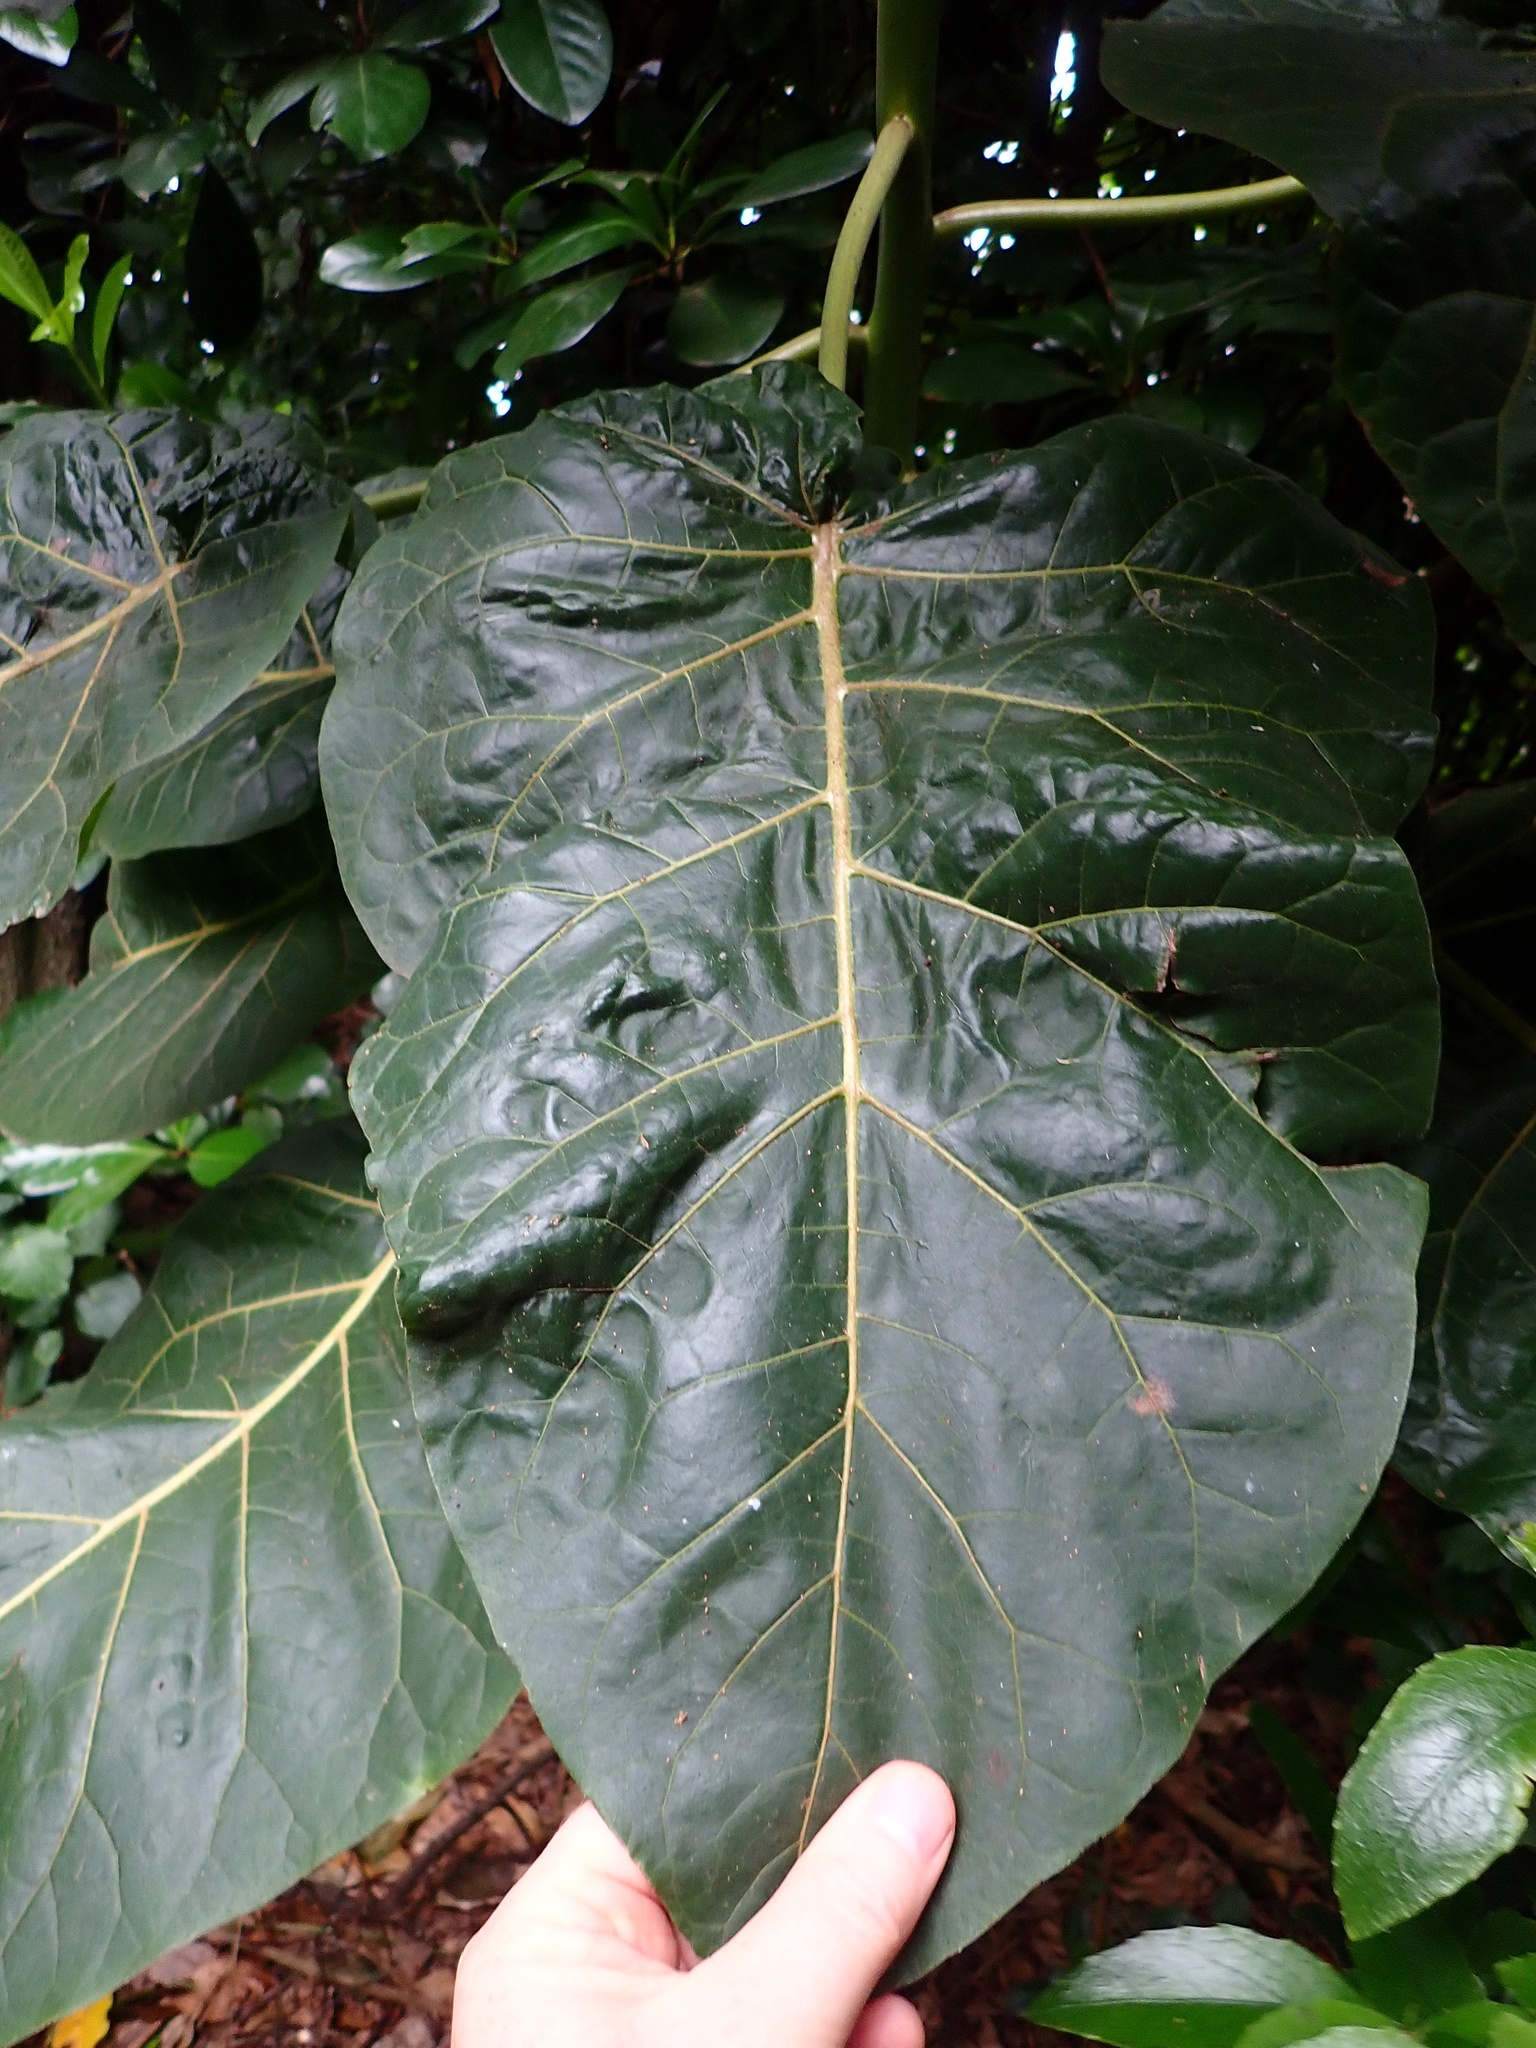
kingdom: Plantae
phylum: Tracheophyta
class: Magnoliopsida
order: Solanales
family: Solanaceae
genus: Solanum
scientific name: Solanum betaceum
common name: Tamarillo
